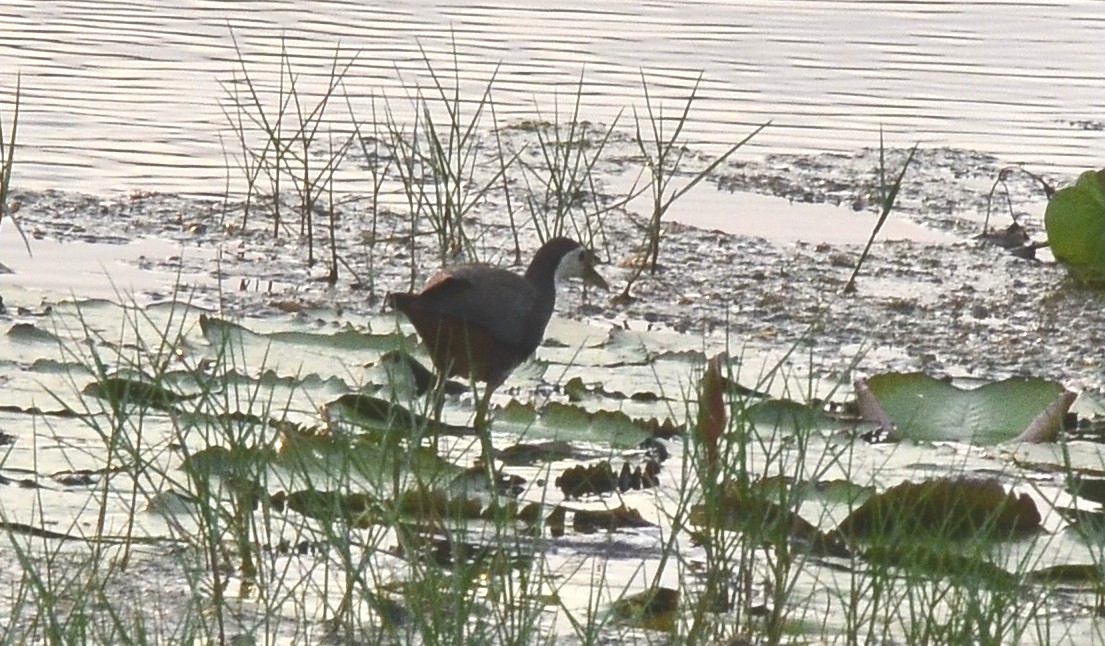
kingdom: Animalia
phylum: Chordata
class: Aves
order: Gruiformes
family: Rallidae
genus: Amaurornis
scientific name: Amaurornis phoenicurus
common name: White-breasted waterhen
